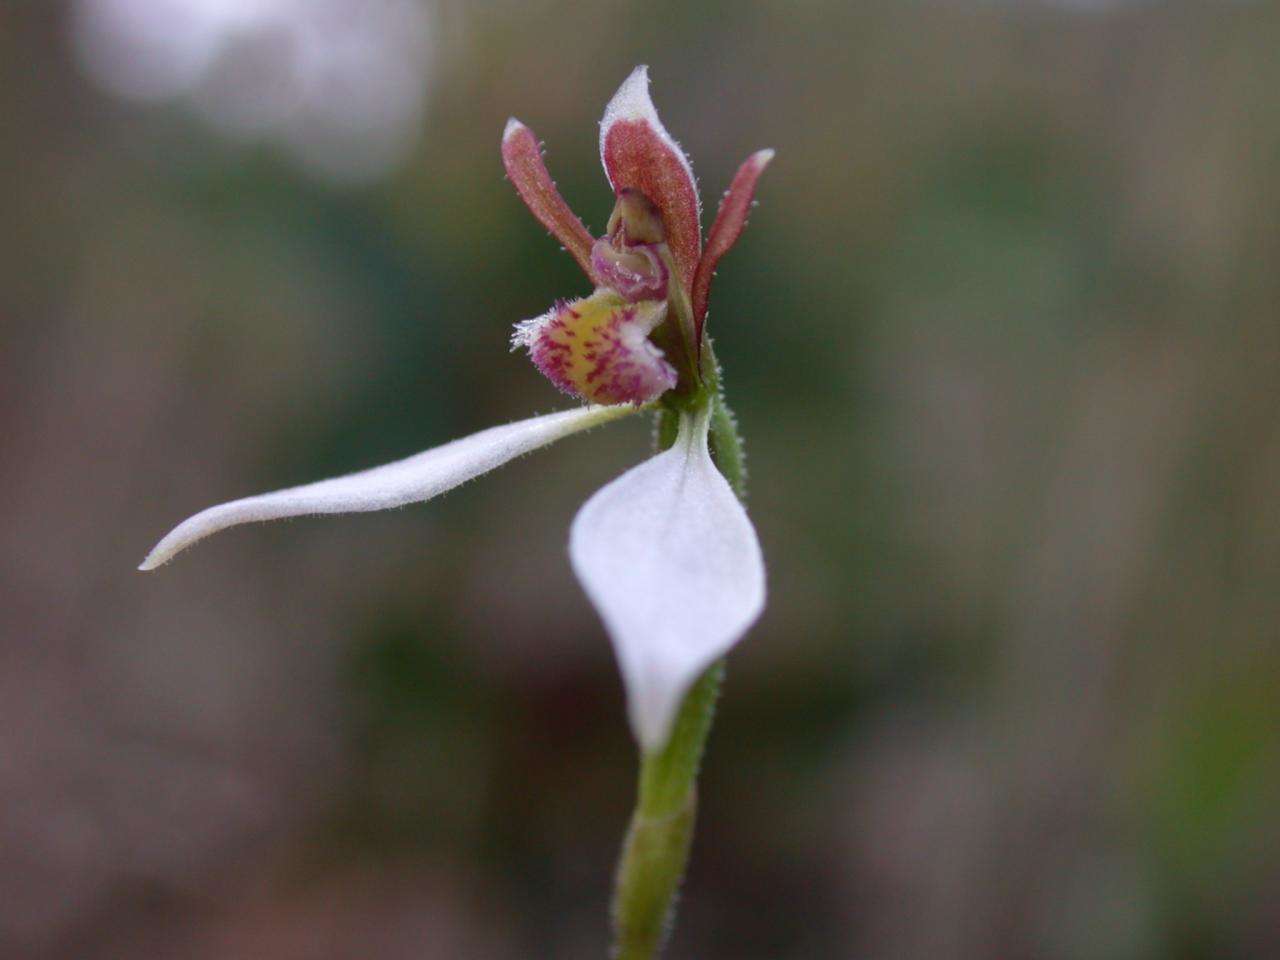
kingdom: Plantae
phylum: Tracheophyta
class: Liliopsida
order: Asparagales
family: Orchidaceae
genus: Eriochilus
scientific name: Eriochilus cucullatus
